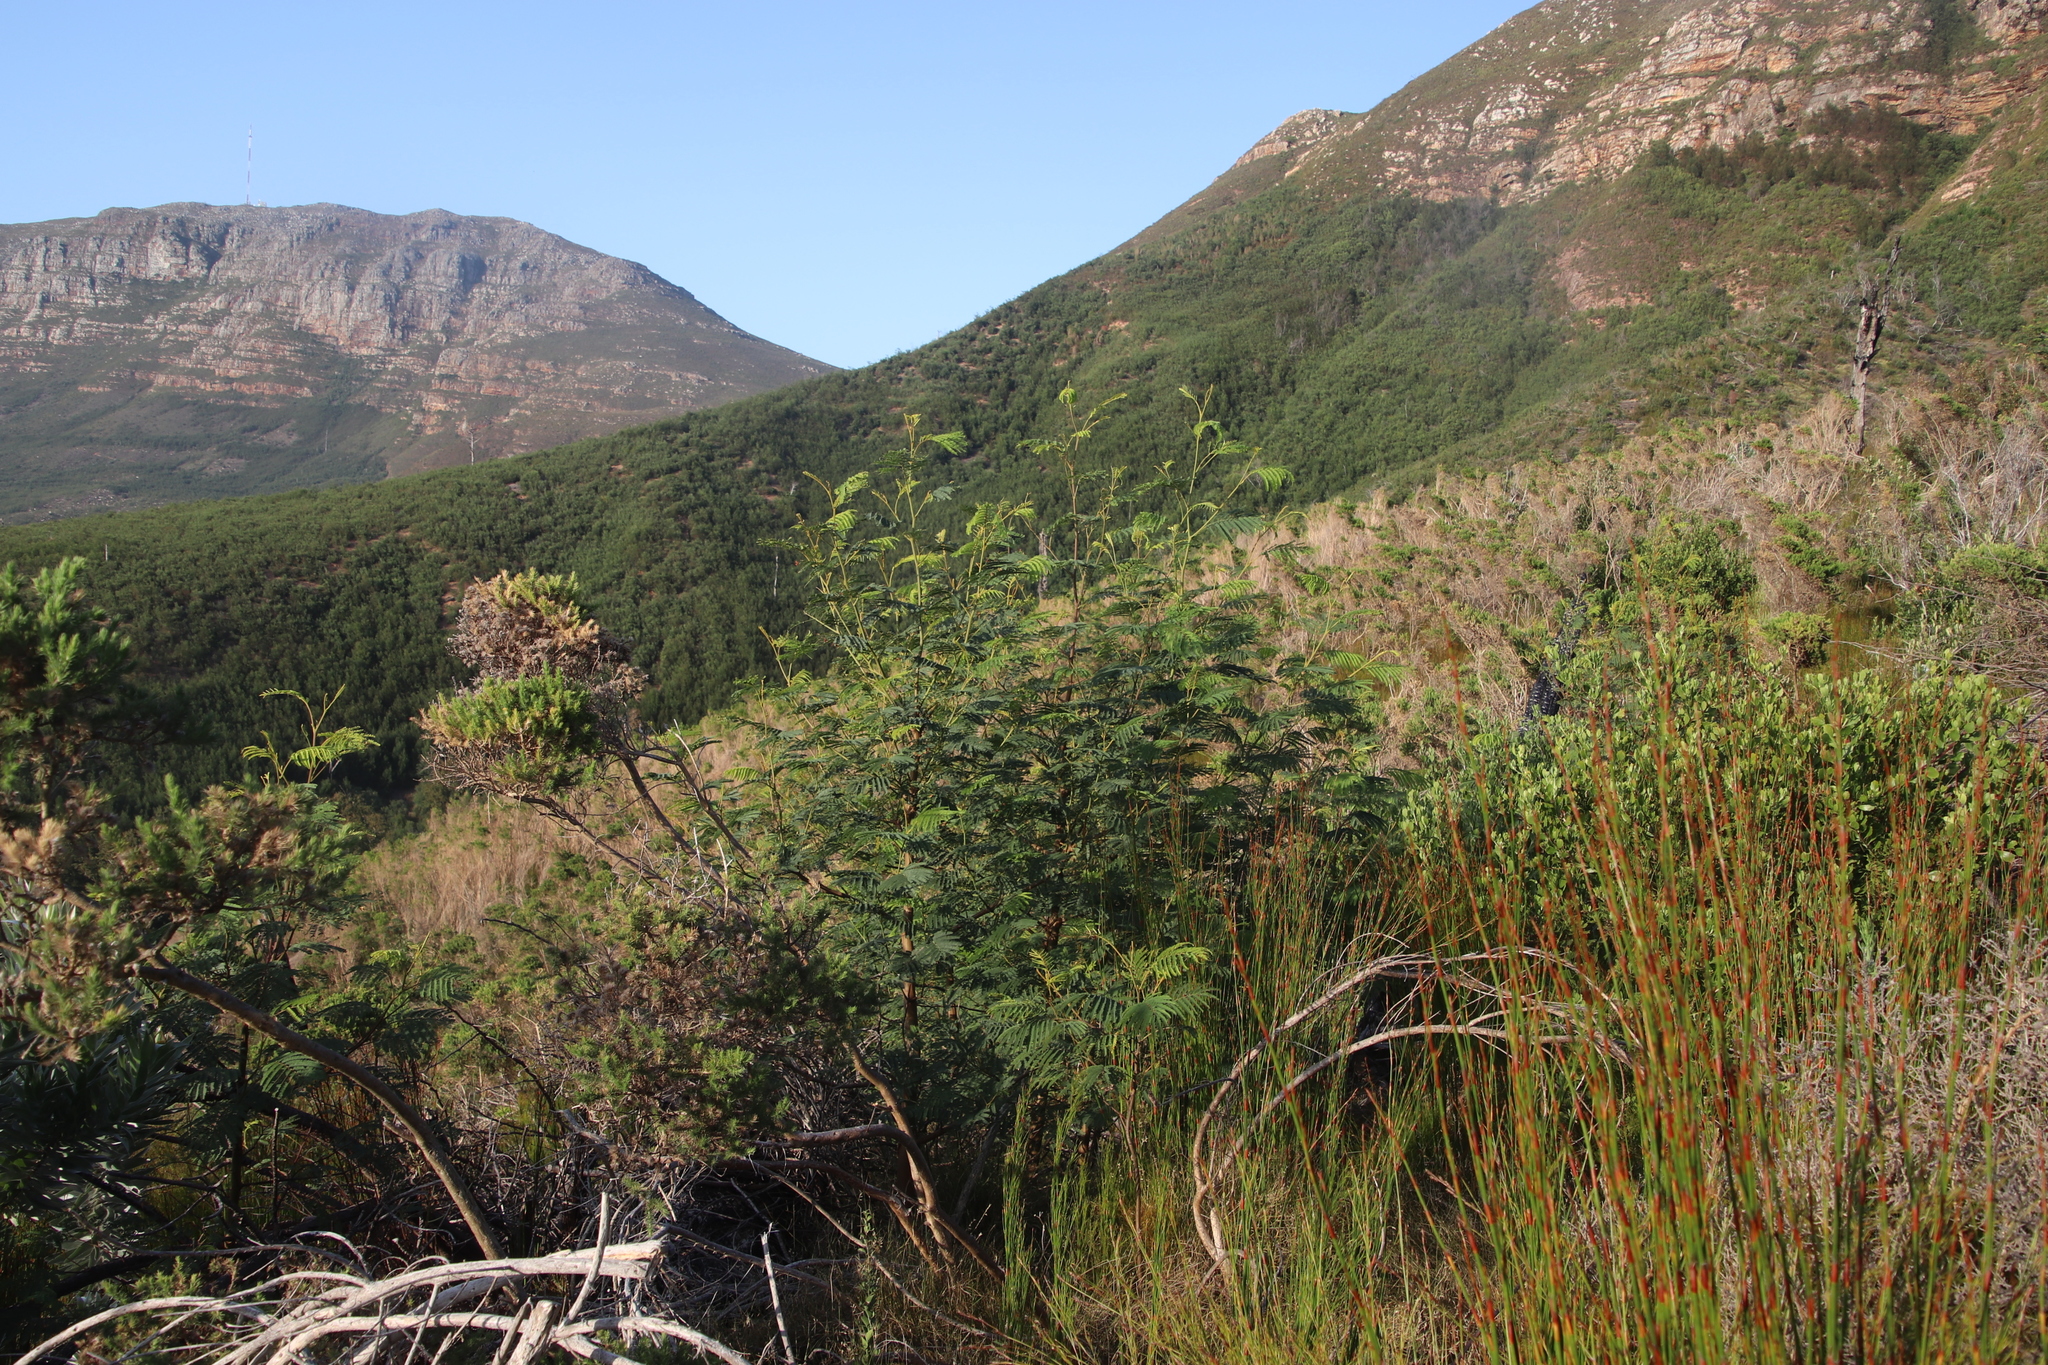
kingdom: Plantae
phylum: Tracheophyta
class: Magnoliopsida
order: Fabales
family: Fabaceae
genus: Paraserianthes
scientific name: Paraserianthes lophantha
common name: Plume albizia
